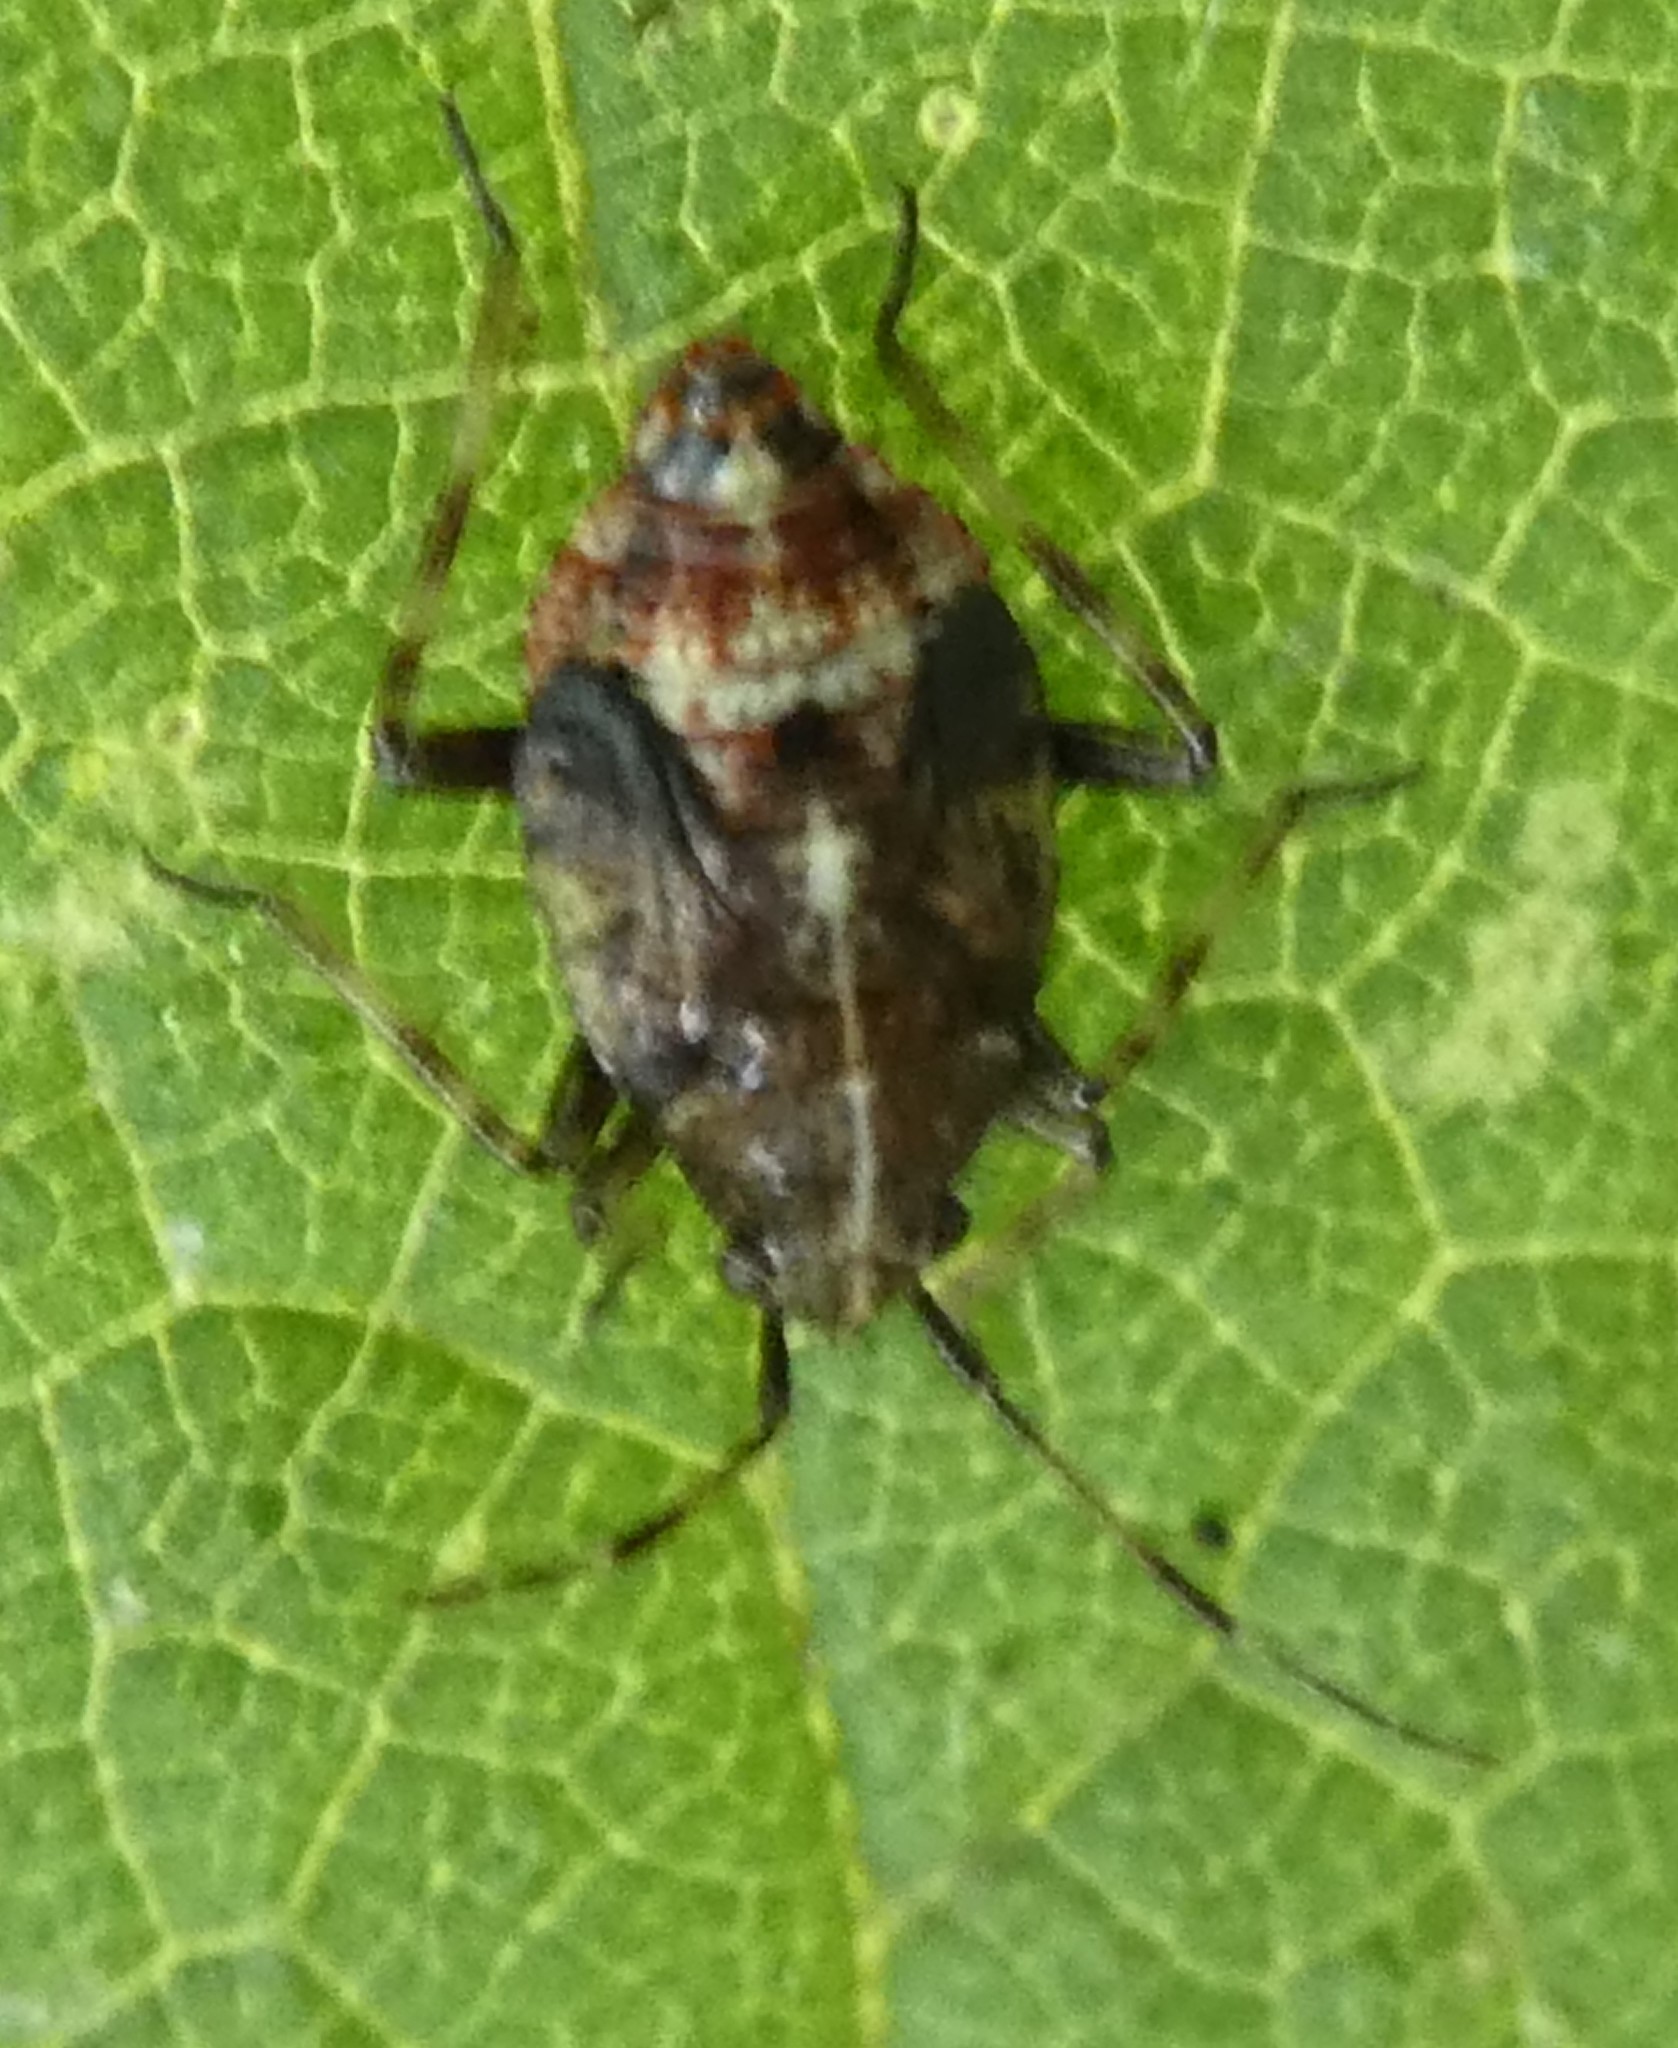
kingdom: Animalia
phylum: Arthropoda
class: Insecta
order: Hemiptera
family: Miridae
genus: Deraeocoris
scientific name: Deraeocoris flavilinea
